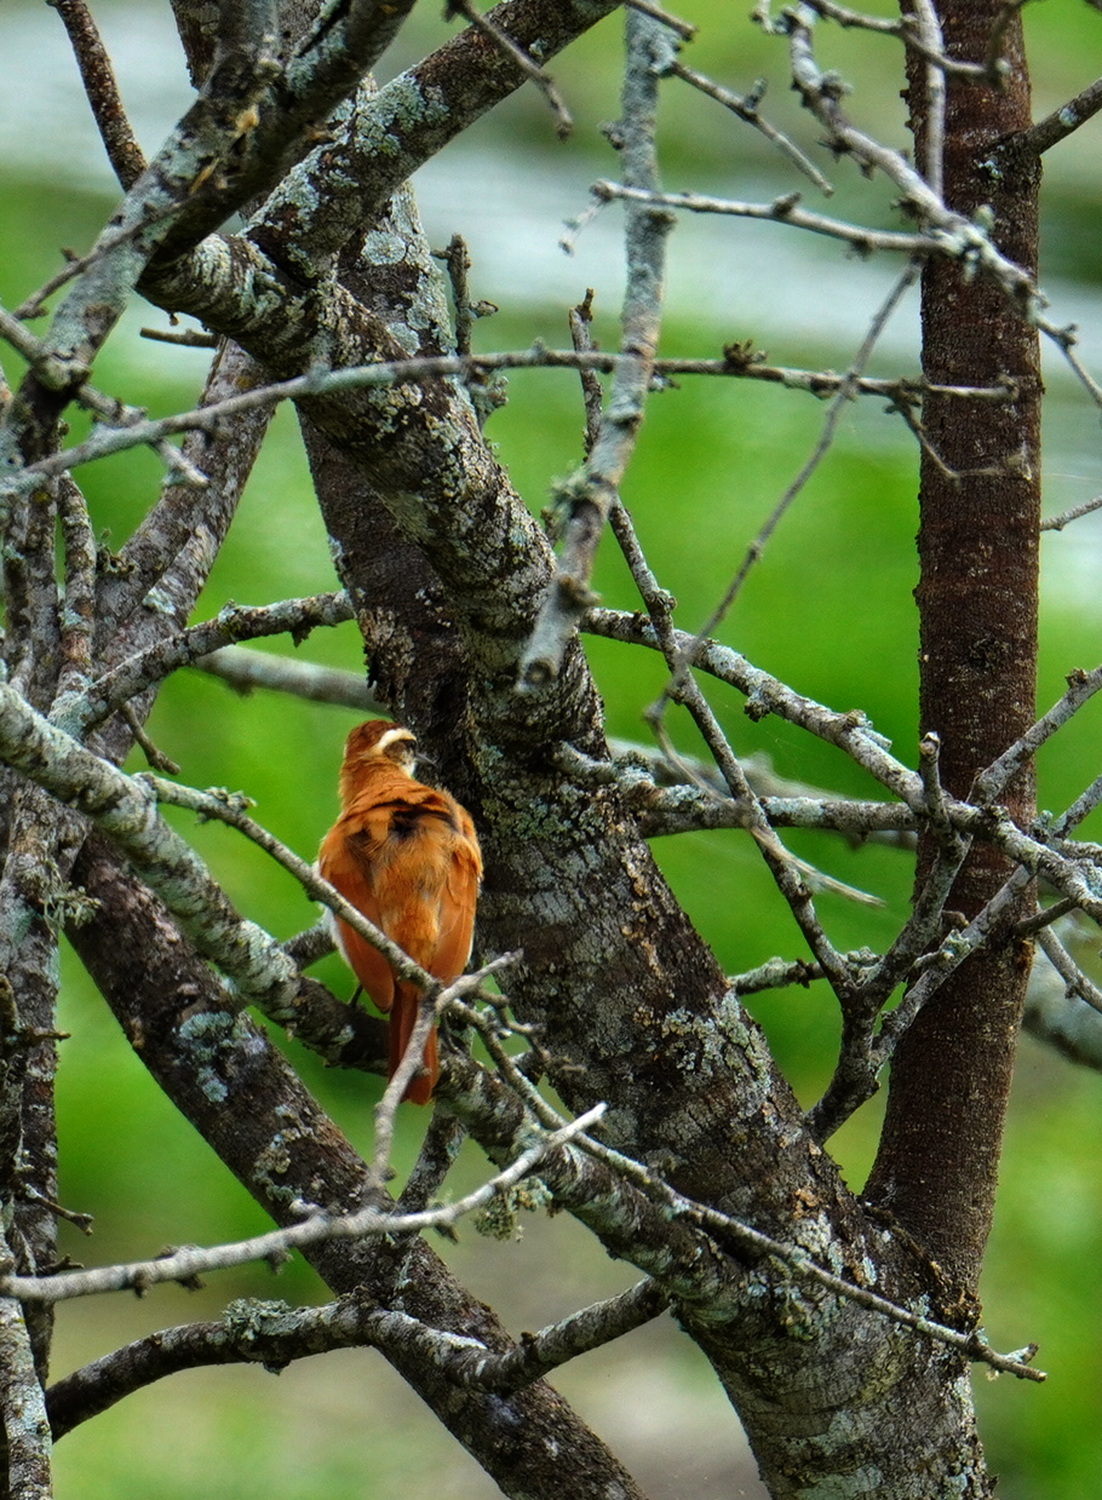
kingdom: Animalia
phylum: Chordata
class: Aves
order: Passeriformes
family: Furnariidae
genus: Furnarius
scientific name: Furnarius figulus
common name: Band-tailed hornero
